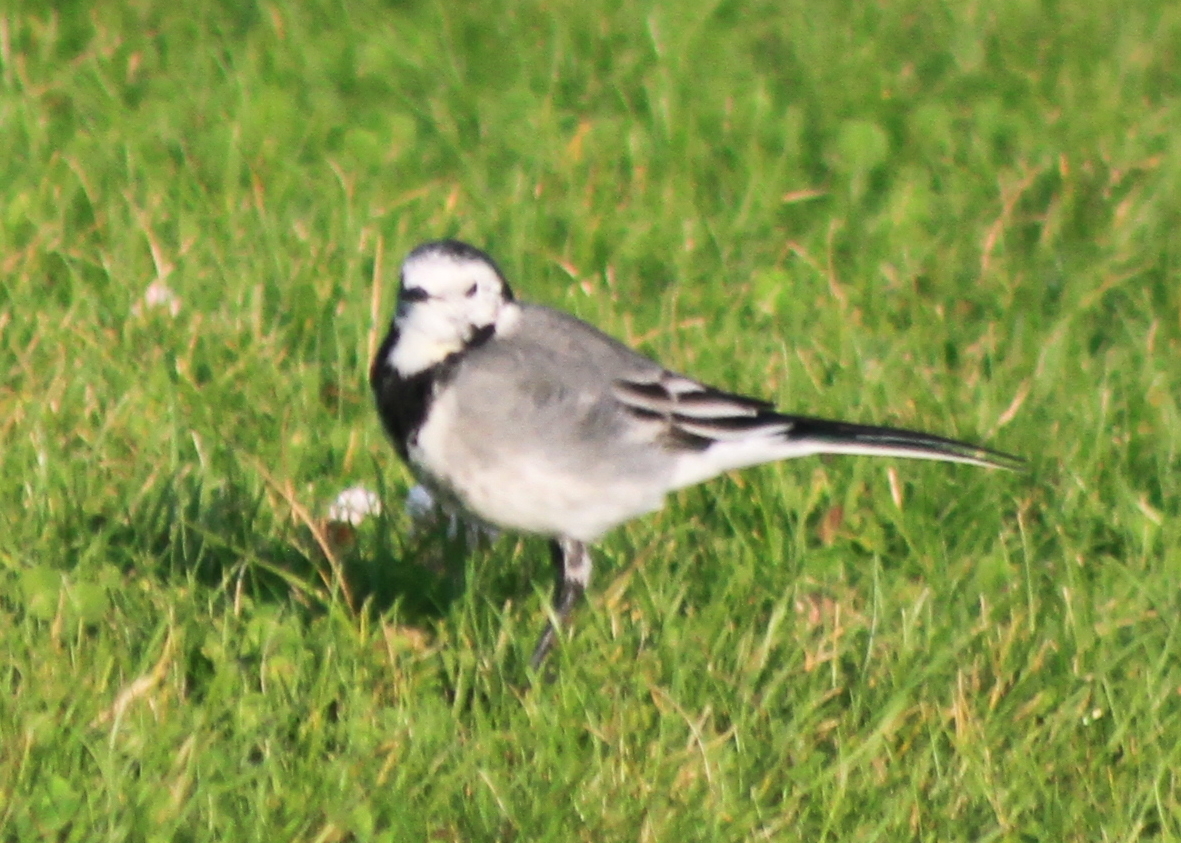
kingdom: Animalia
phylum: Chordata
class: Aves
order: Passeriformes
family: Motacillidae
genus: Motacilla
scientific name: Motacilla alba
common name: White wagtail
